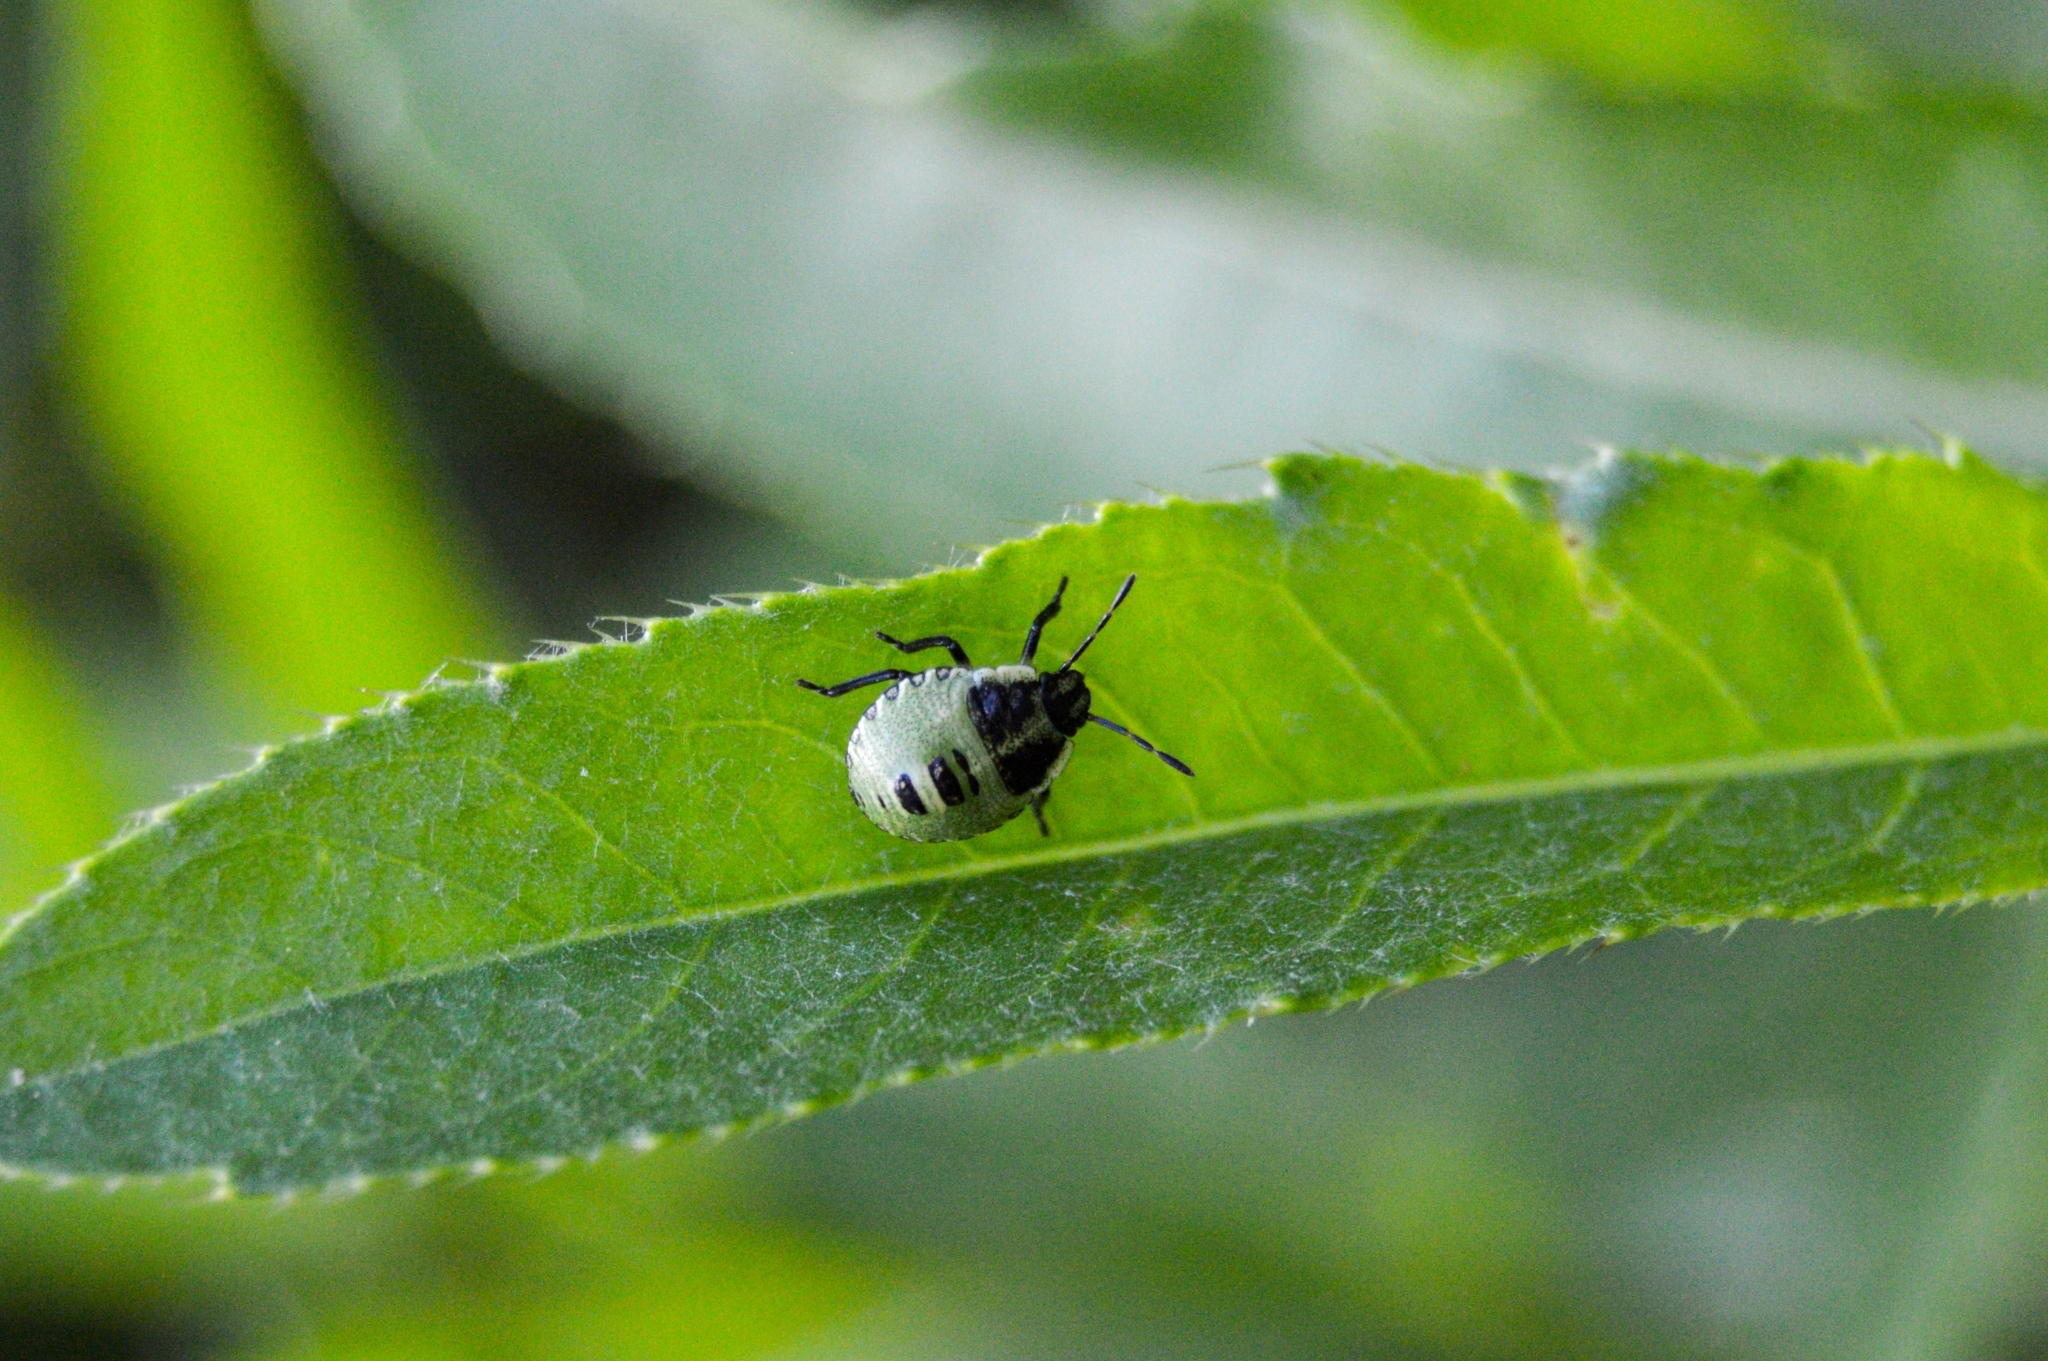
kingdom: Animalia
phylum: Arthropoda
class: Insecta
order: Hemiptera
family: Pentatomidae
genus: Palomena
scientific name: Palomena prasina
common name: Green shieldbug
